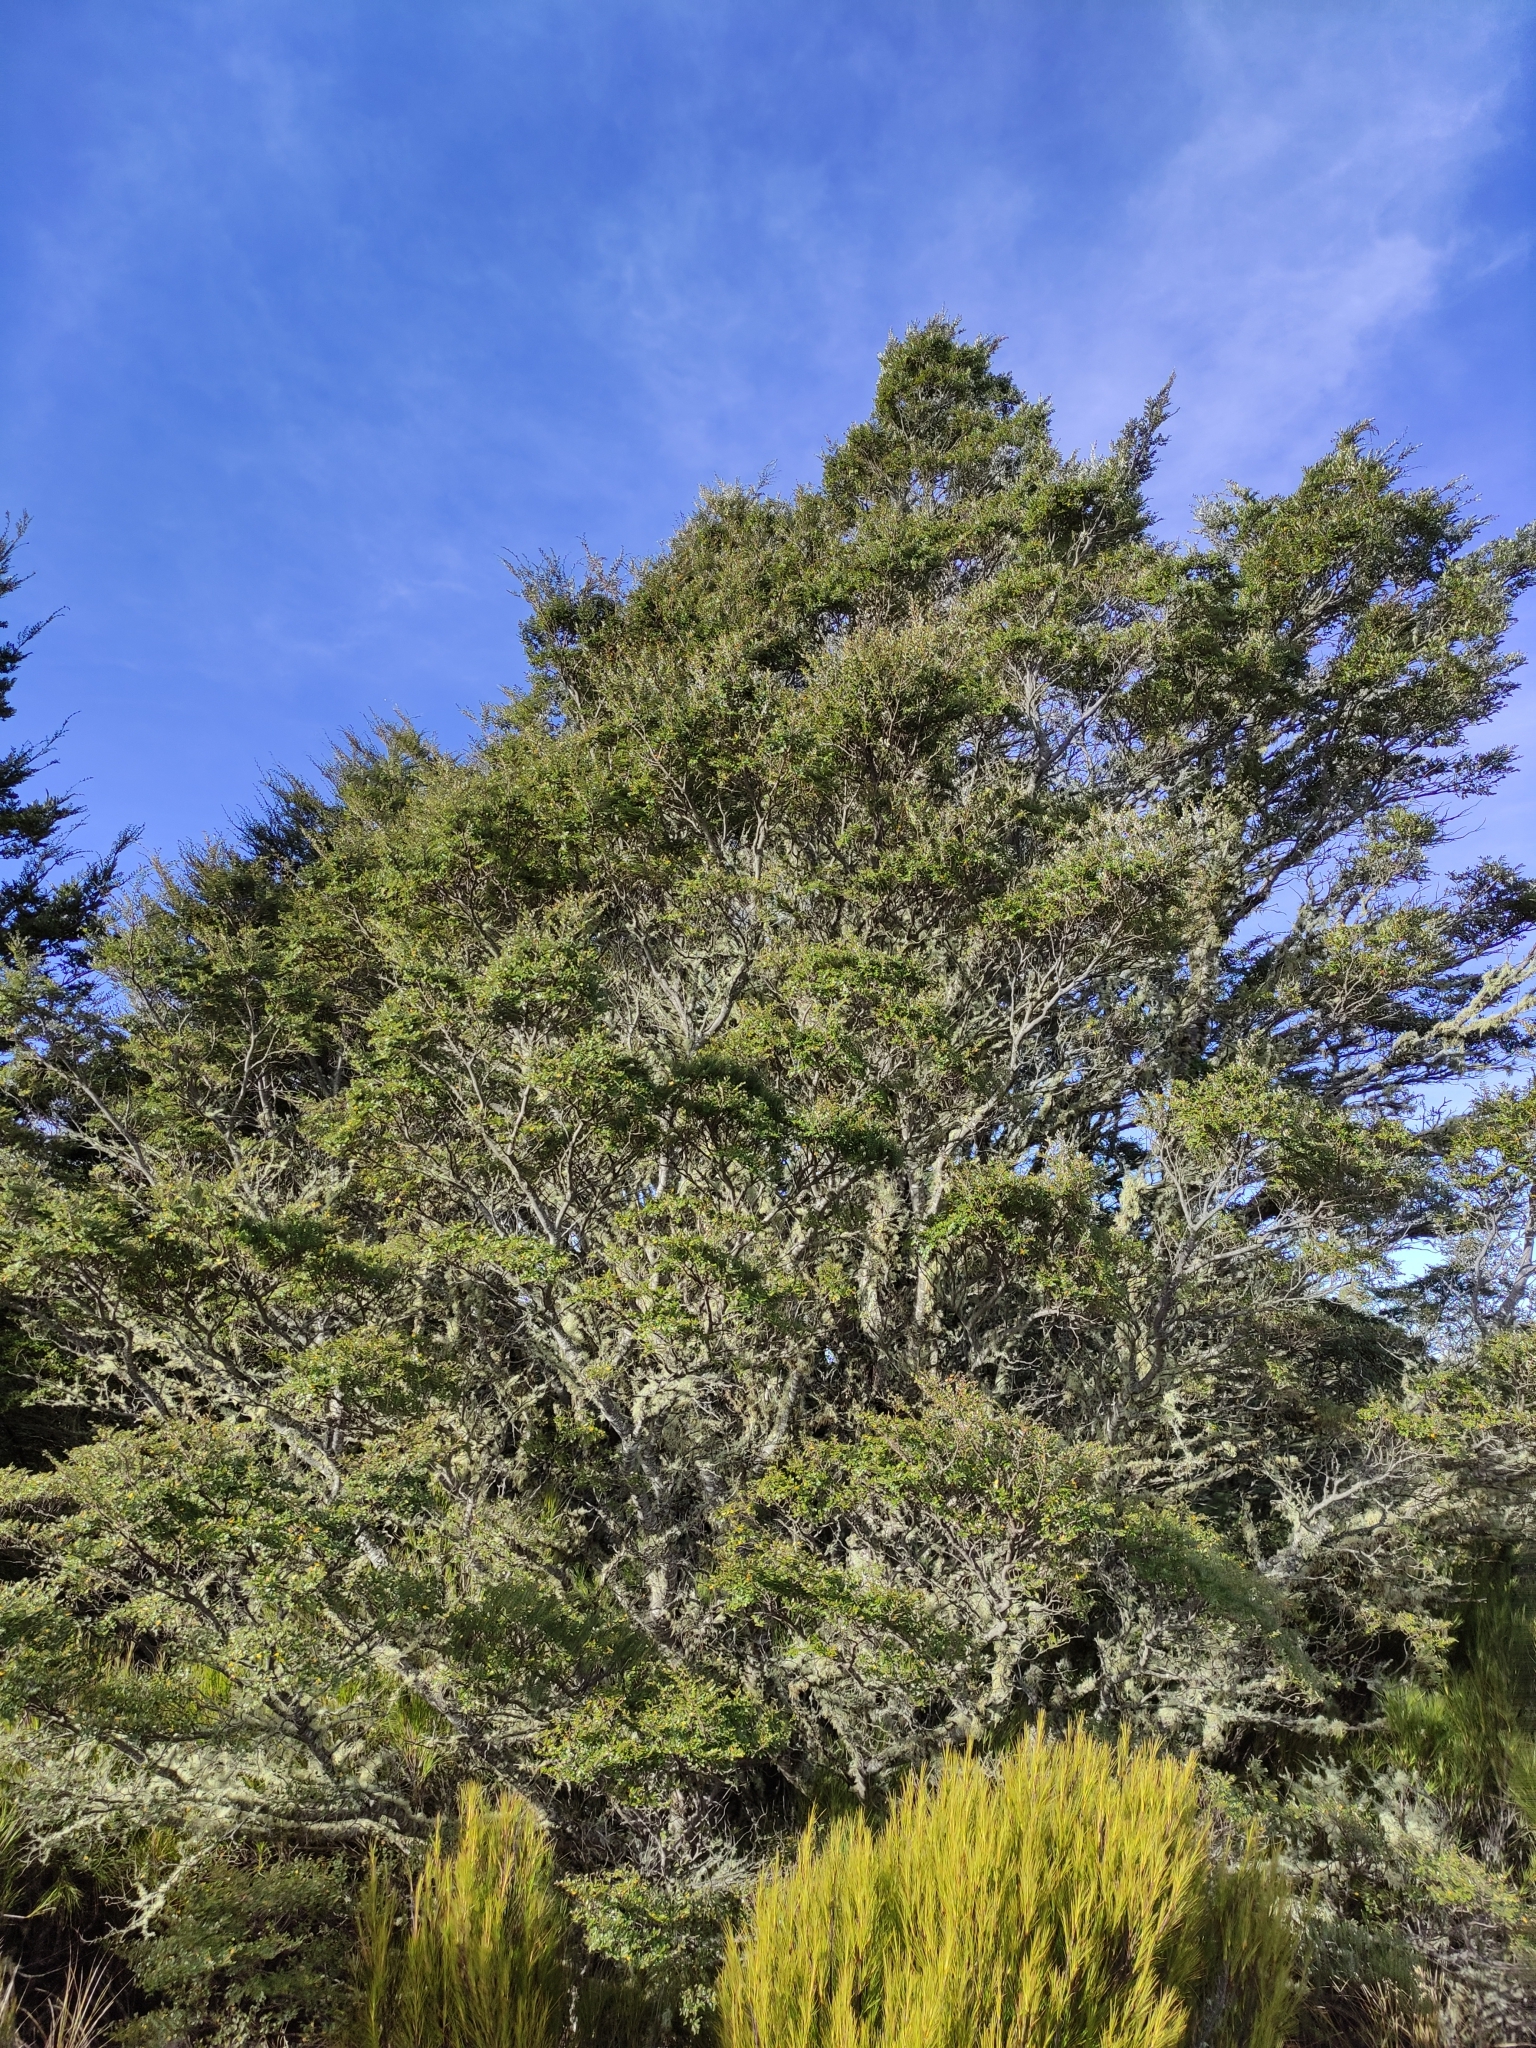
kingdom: Plantae
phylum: Tracheophyta
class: Magnoliopsida
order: Fagales
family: Nothofagaceae
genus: Nothofagus
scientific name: Nothofagus cliffortioides
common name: Mountain beech
